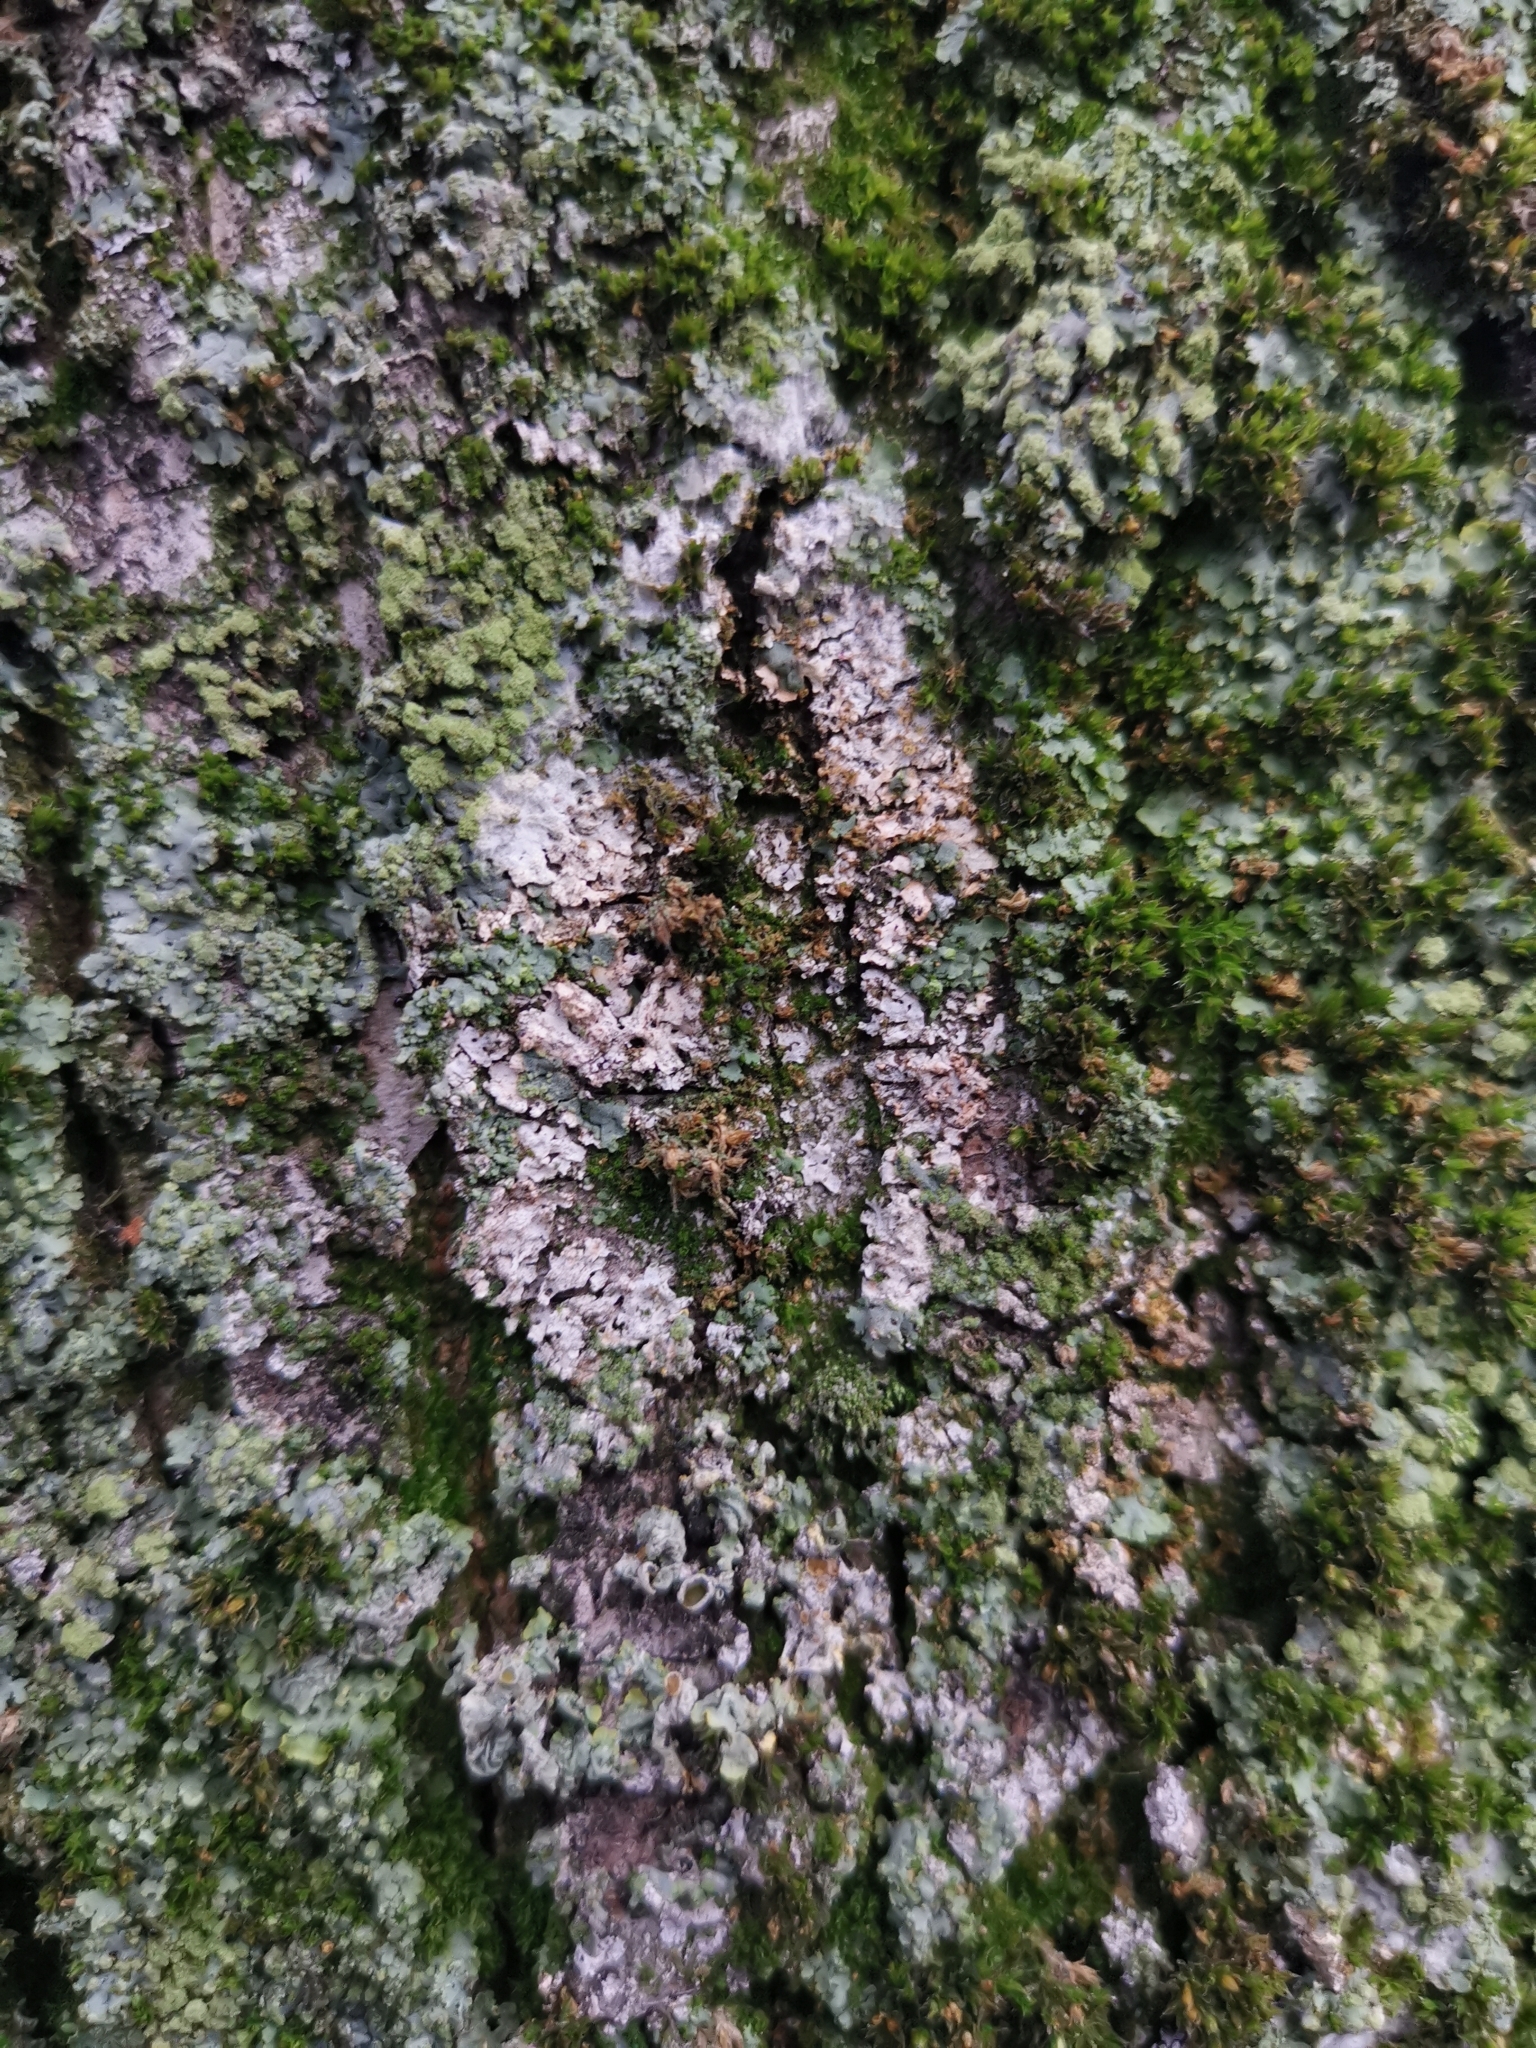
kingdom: Fungi
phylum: Basidiomycota
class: Agaricomycetes
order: Atheliales
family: Atheliaceae
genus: Athelia
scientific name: Athelia arachnoidea
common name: Candelabra duster
